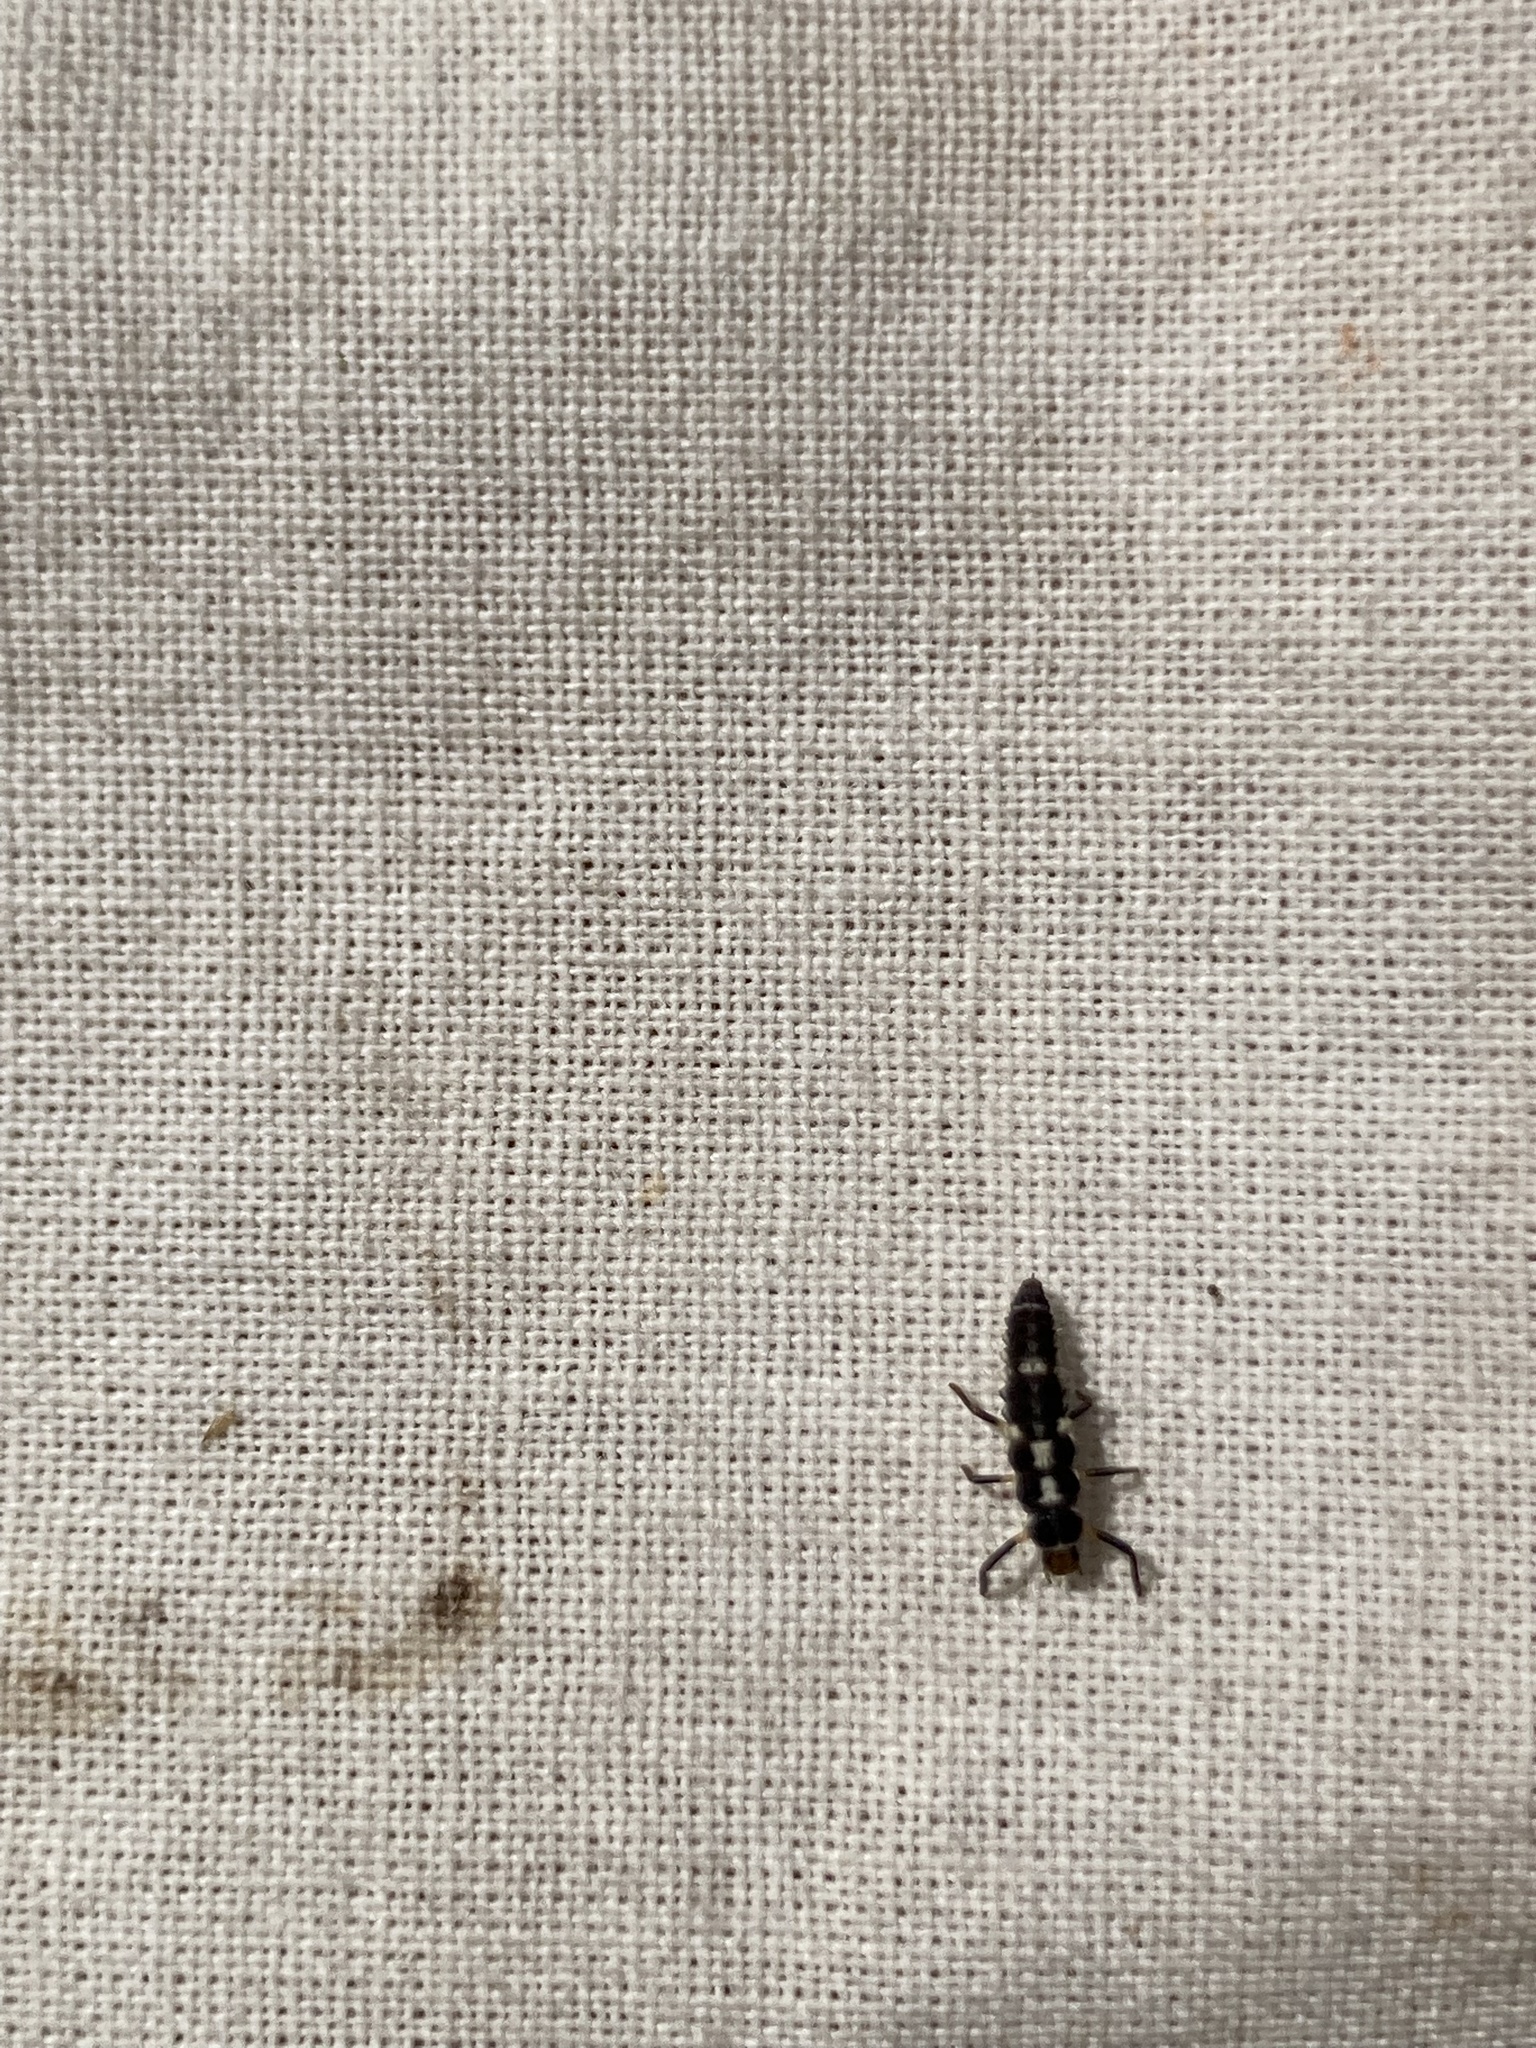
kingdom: Animalia
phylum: Arthropoda
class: Insecta
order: Coleoptera
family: Coccinellidae
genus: Propylaea
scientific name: Propylaea quatuordecimpunctata
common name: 14-spotted ladybird beetle
